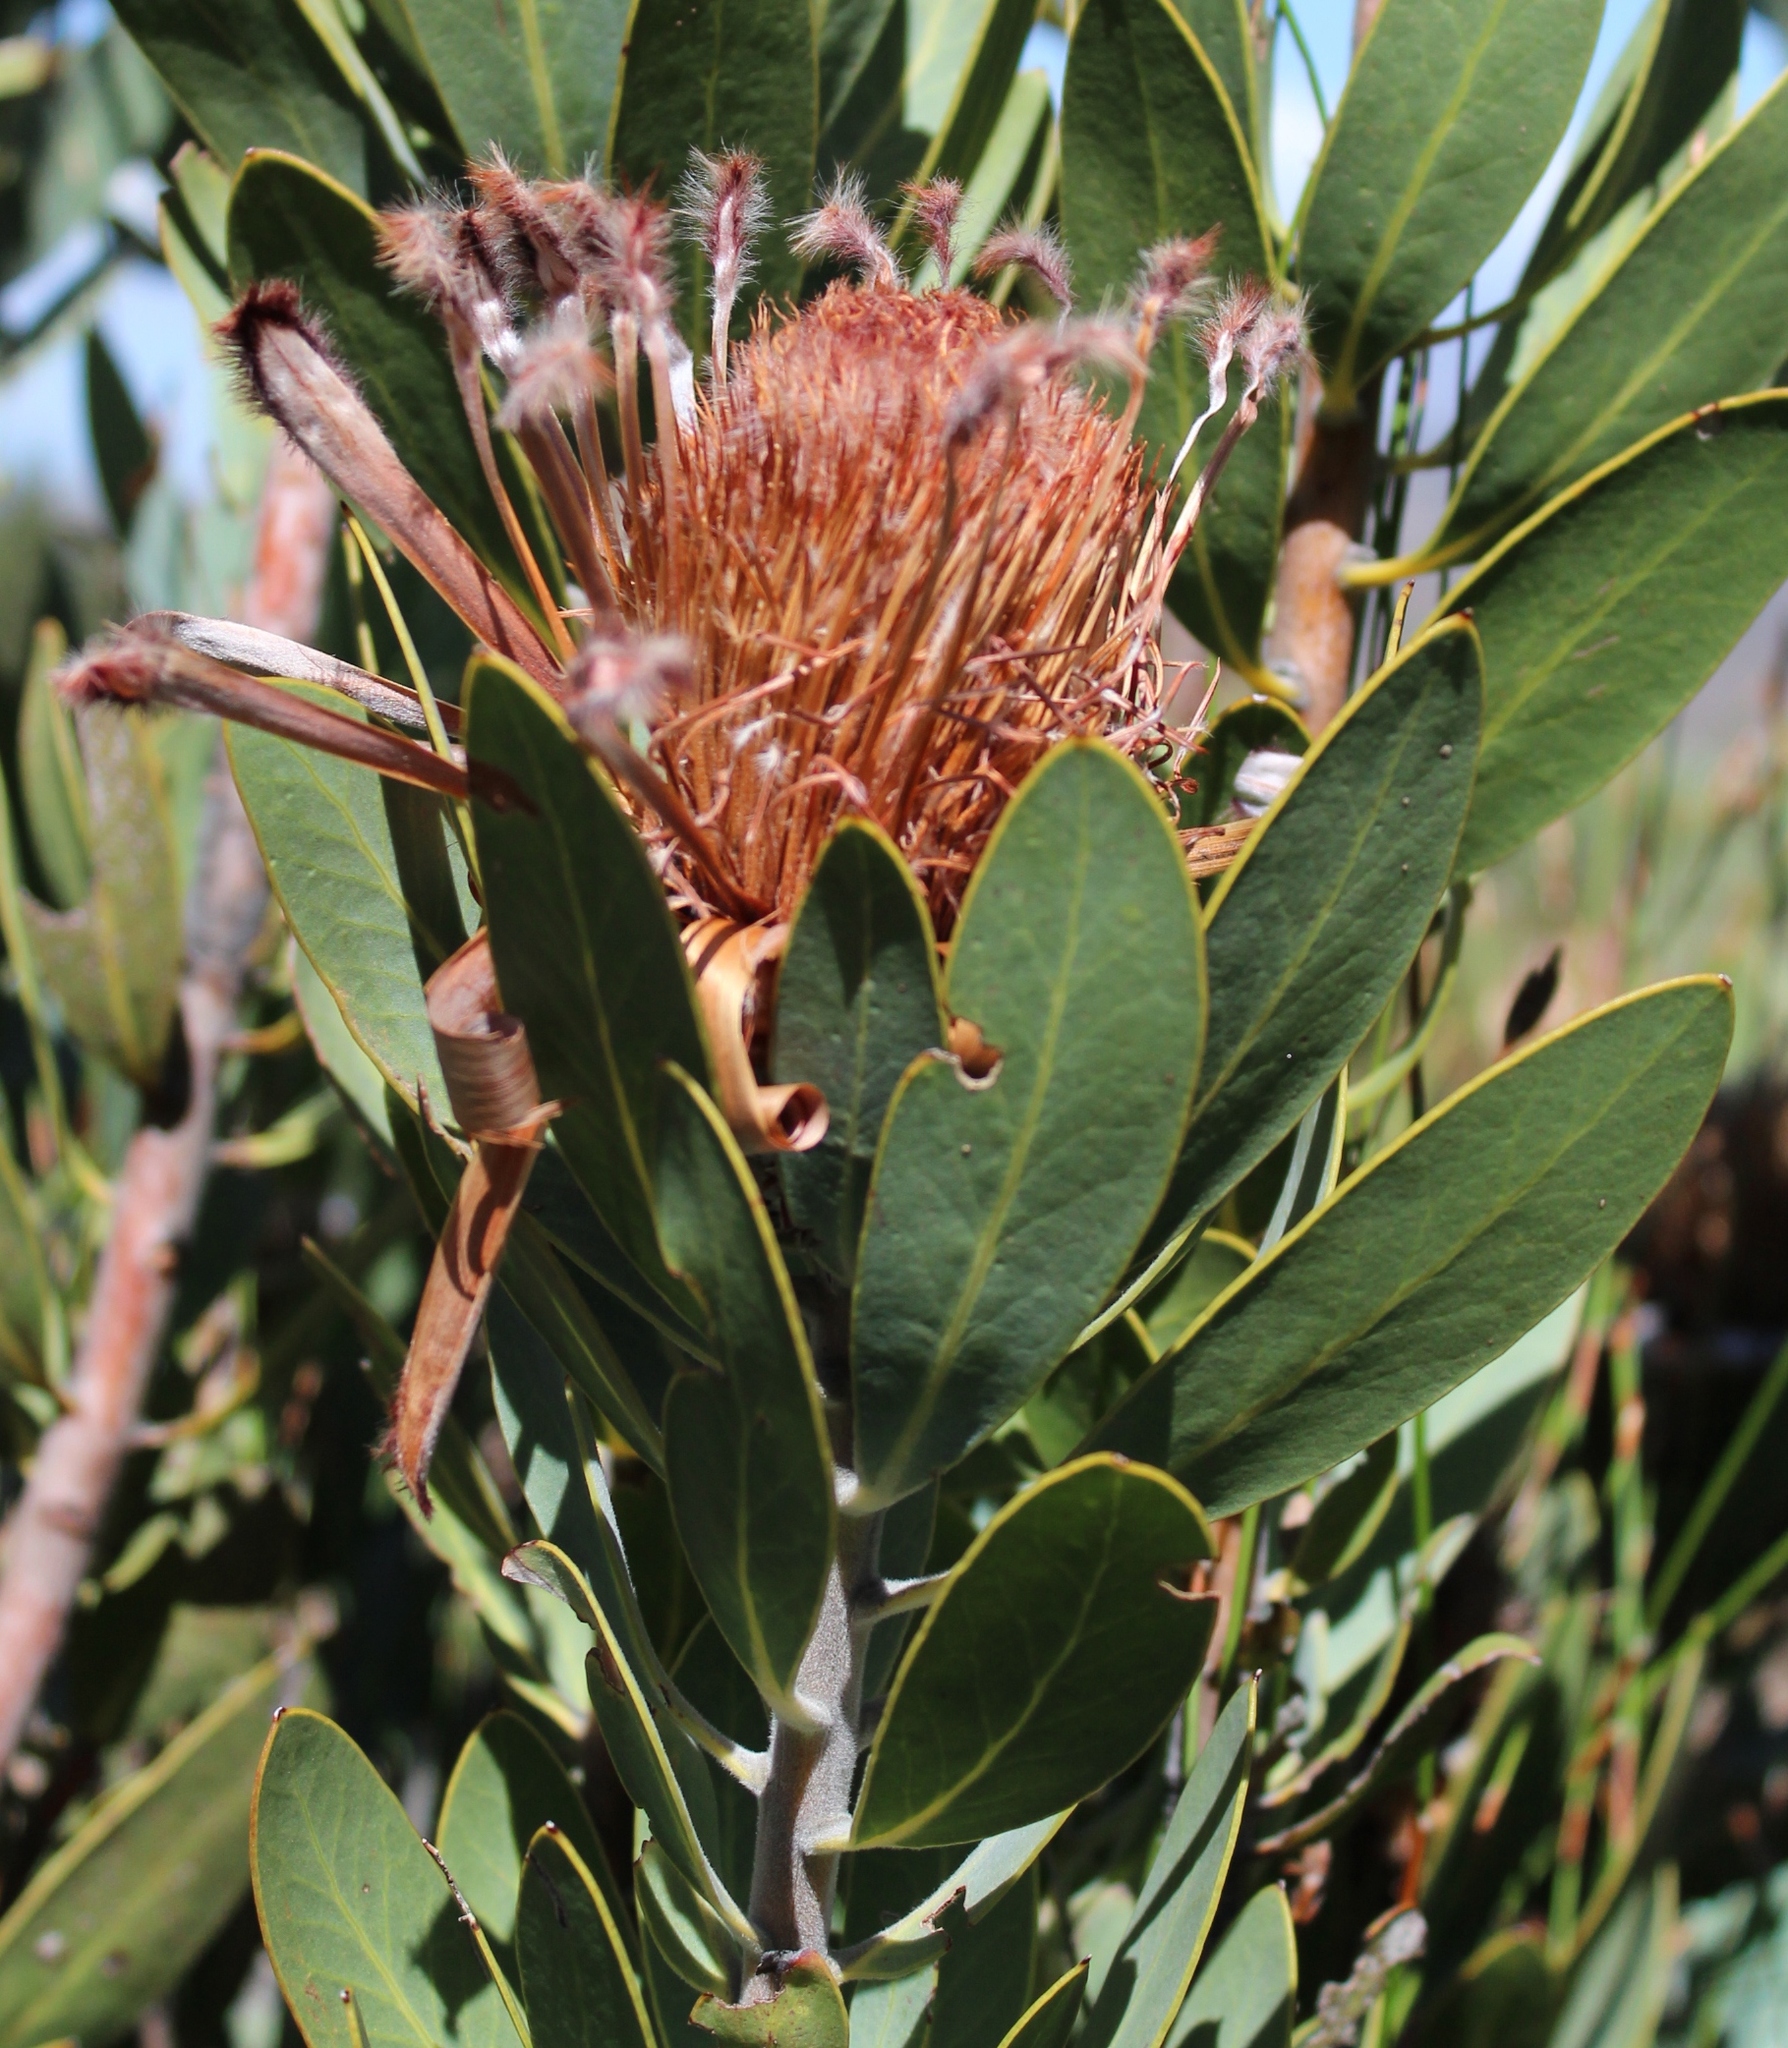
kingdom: Plantae
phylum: Tracheophyta
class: Magnoliopsida
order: Proteales
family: Proteaceae
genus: Protea
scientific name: Protea laurifolia
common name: Grey-leaf sugarbsh
